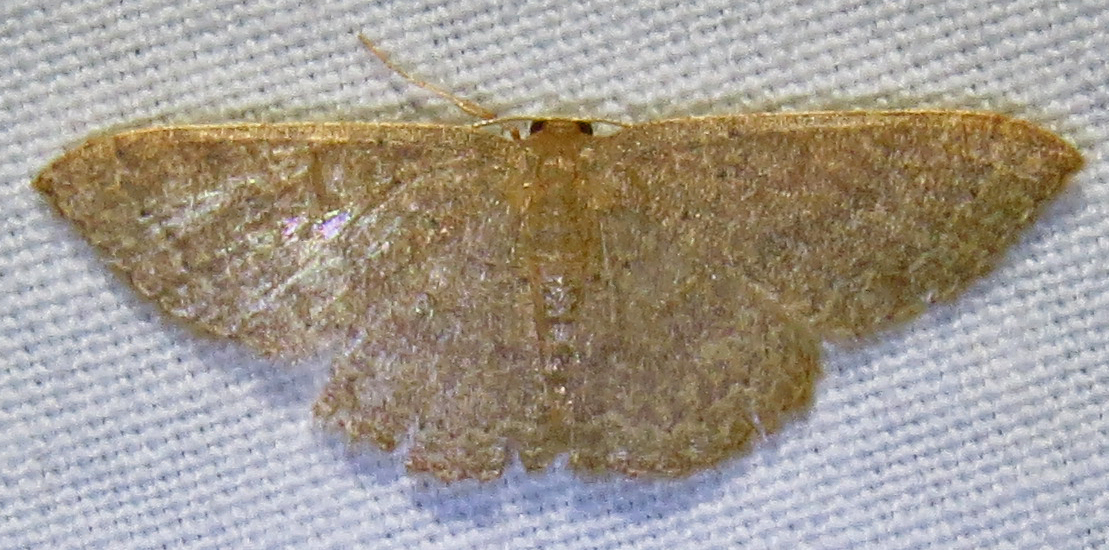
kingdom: Animalia
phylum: Arthropoda
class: Insecta
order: Lepidoptera
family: Geometridae
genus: Pleuroprucha
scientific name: Pleuroprucha insulsaria
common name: Common tan wave
